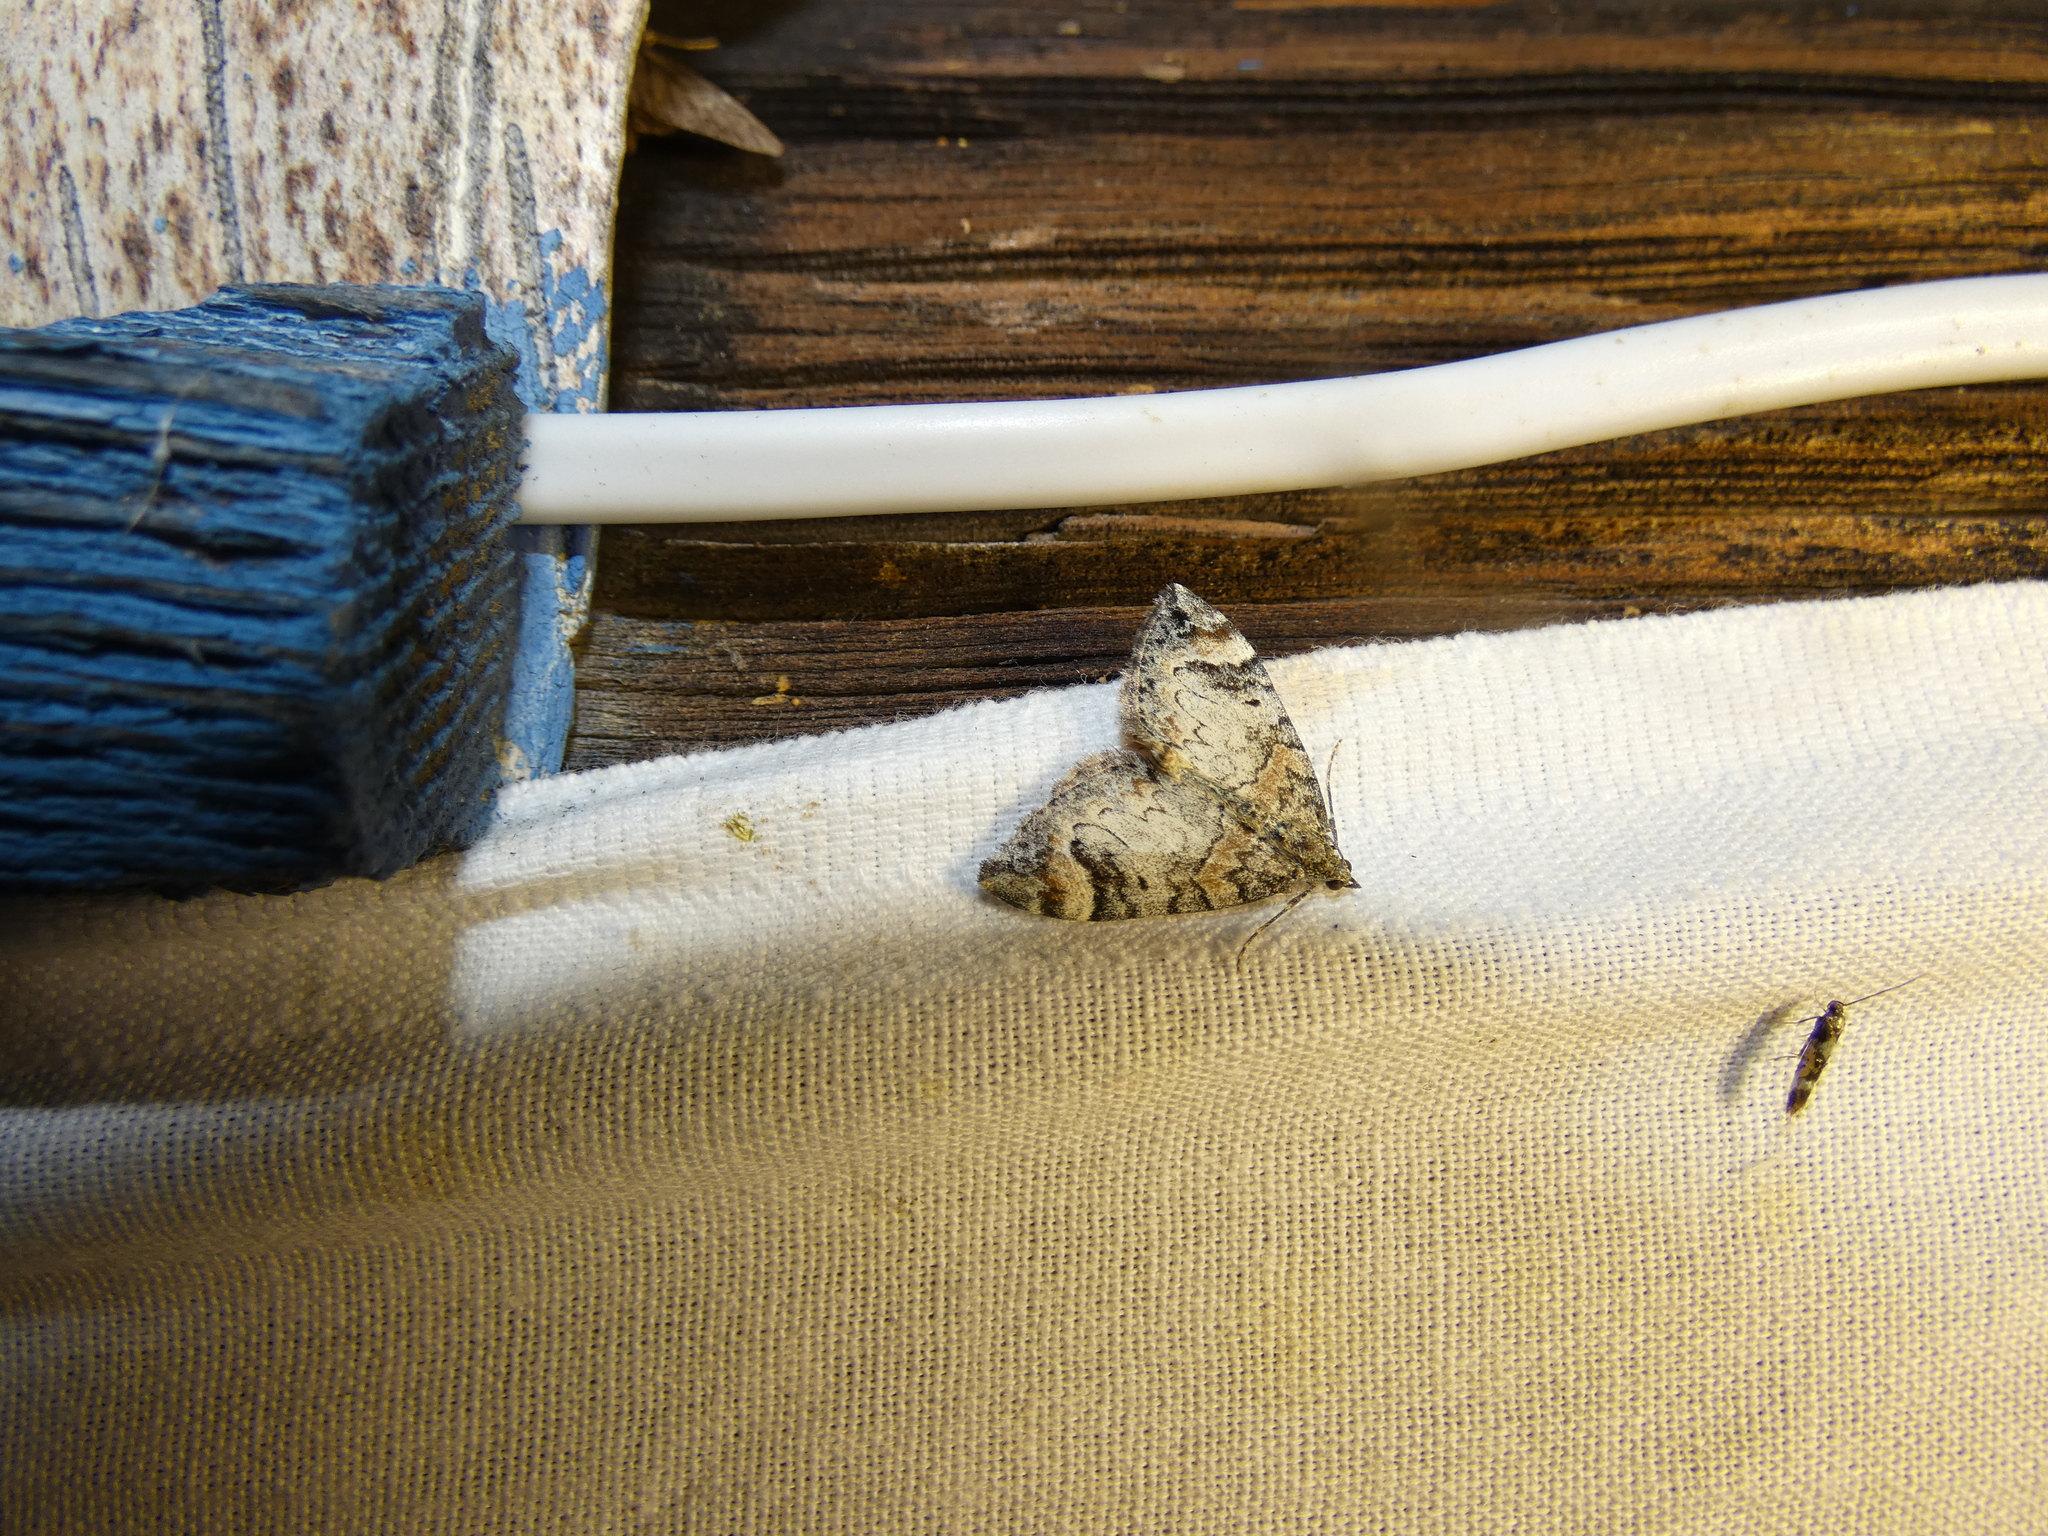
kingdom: Animalia
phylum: Arthropoda
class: Insecta
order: Lepidoptera
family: Geometridae
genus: Dysstroma
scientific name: Dysstroma citrata
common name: Dark marbled carpet
